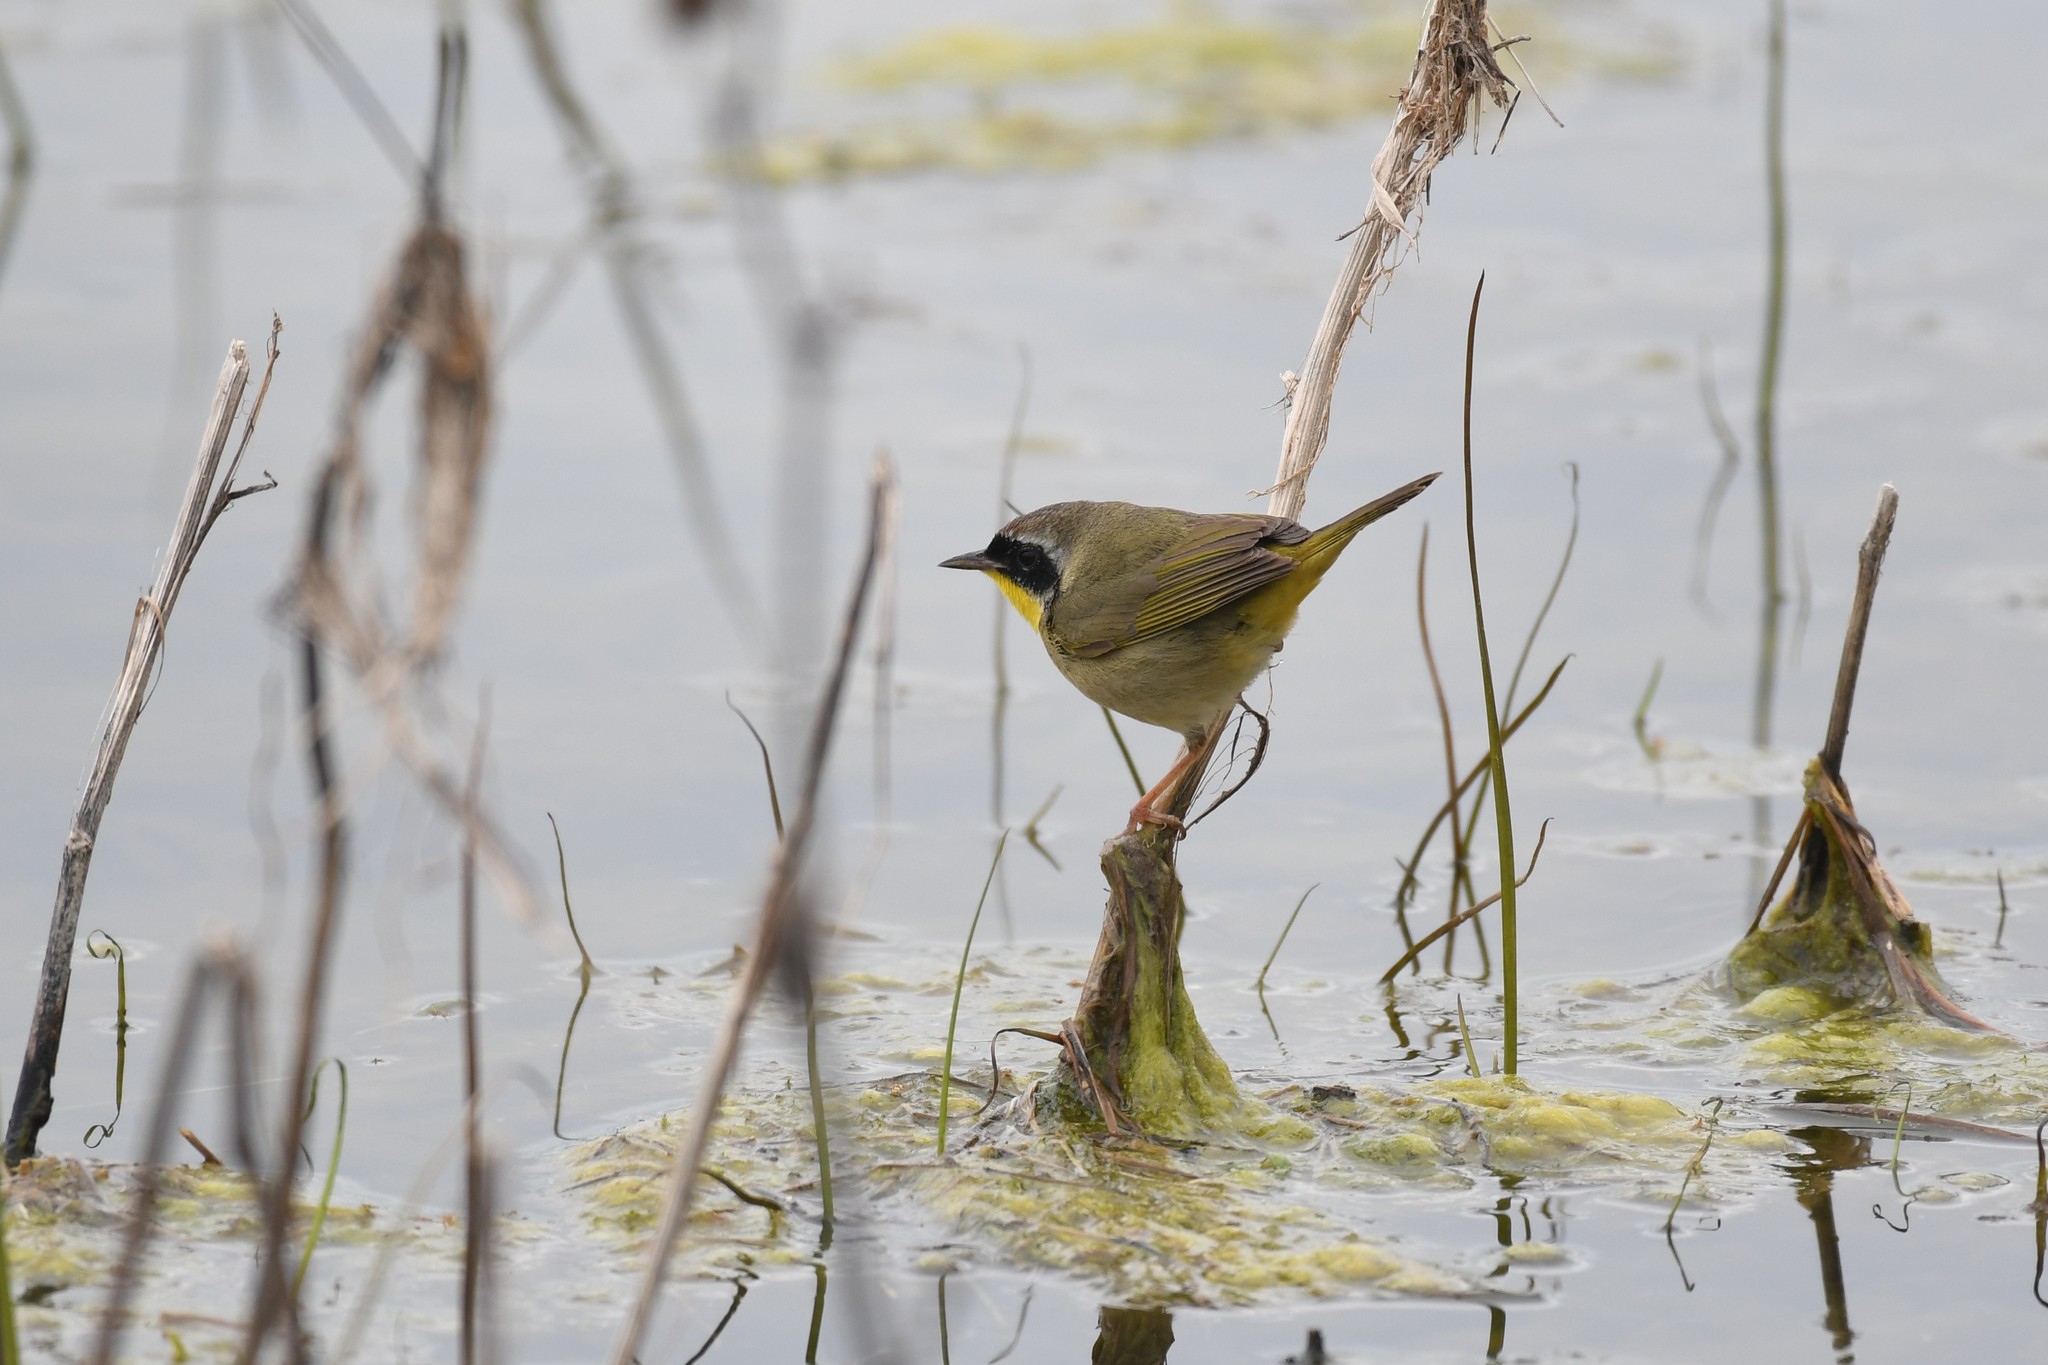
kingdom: Animalia
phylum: Chordata
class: Aves
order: Passeriformes
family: Parulidae
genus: Geothlypis
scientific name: Geothlypis trichas
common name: Common yellowthroat
